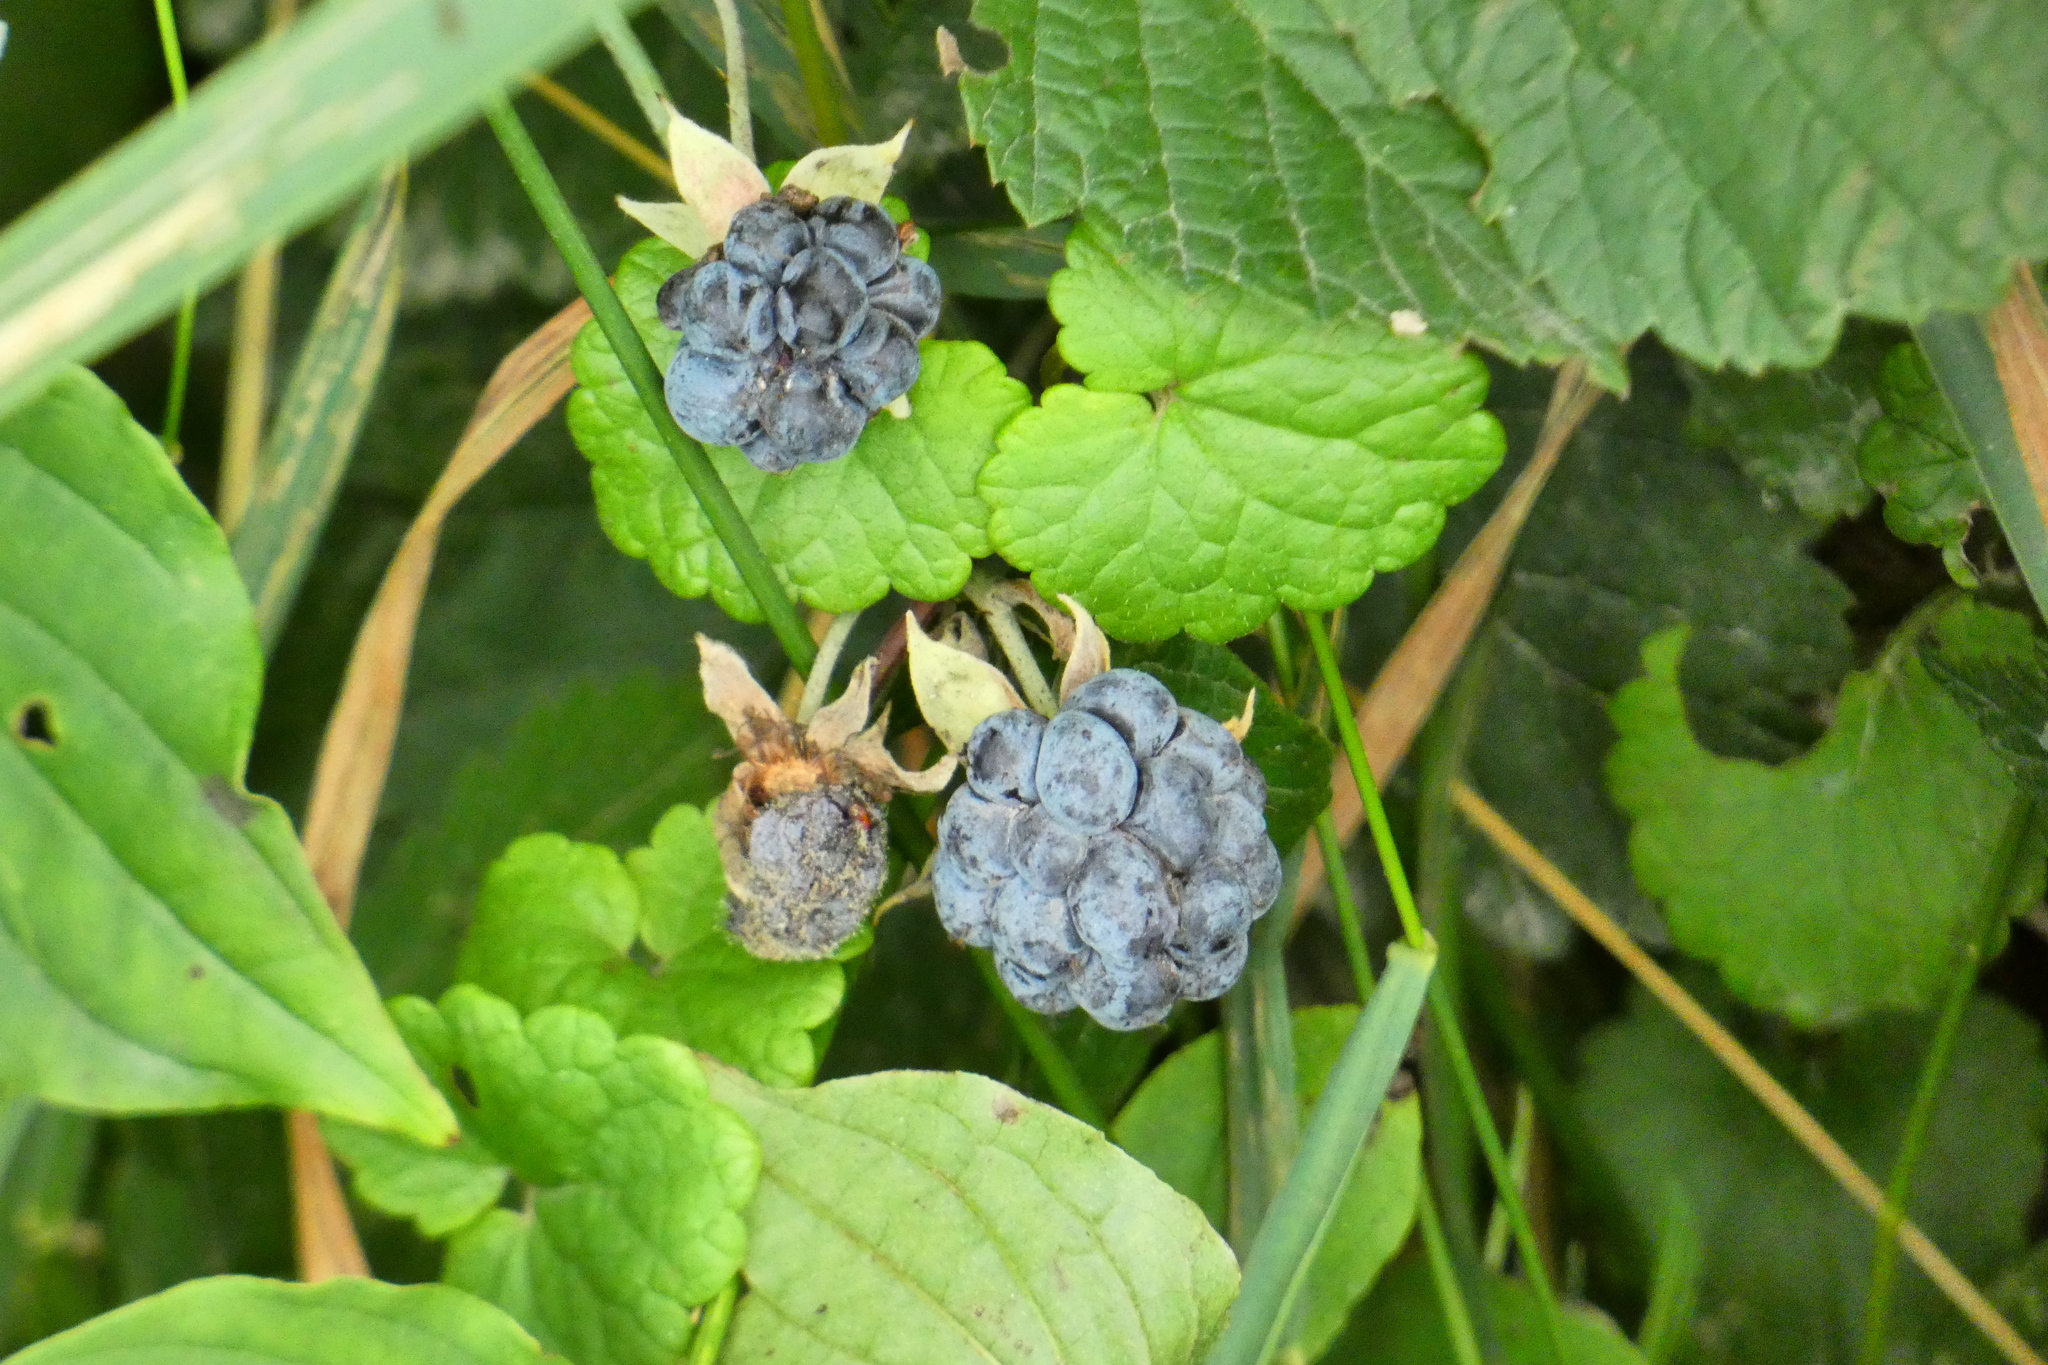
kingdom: Plantae
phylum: Tracheophyta
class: Magnoliopsida
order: Rosales
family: Rosaceae
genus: Rubus
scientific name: Rubus caesius
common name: Dewberry
